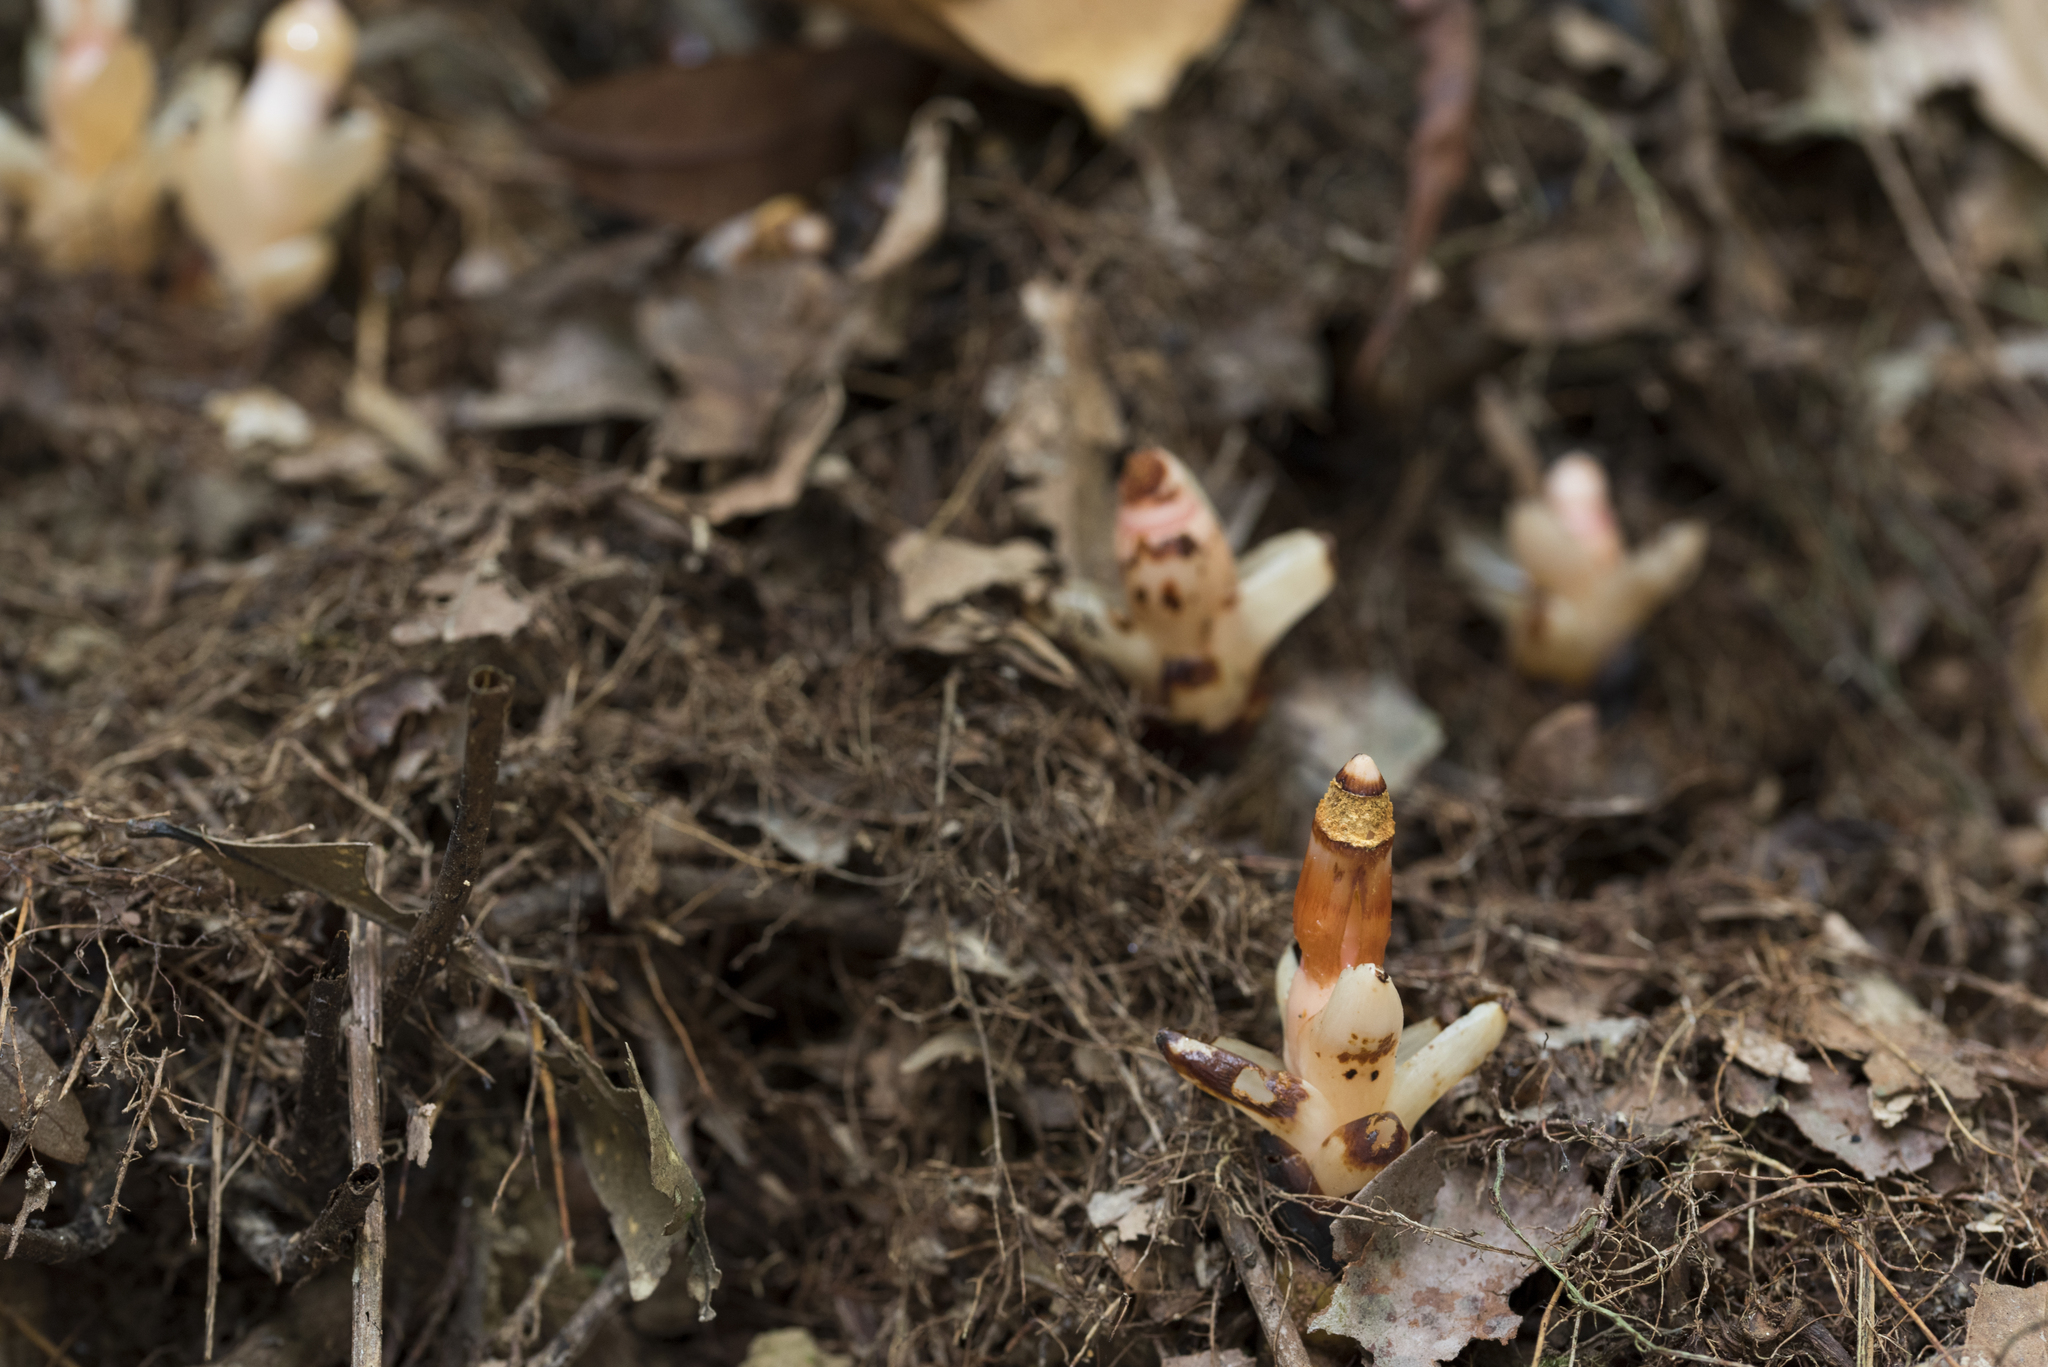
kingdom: Plantae
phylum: Tracheophyta
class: Magnoliopsida
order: Ericales
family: Mitrastemonaceae
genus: Mitrastemon
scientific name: Mitrastemon yamamotoi
